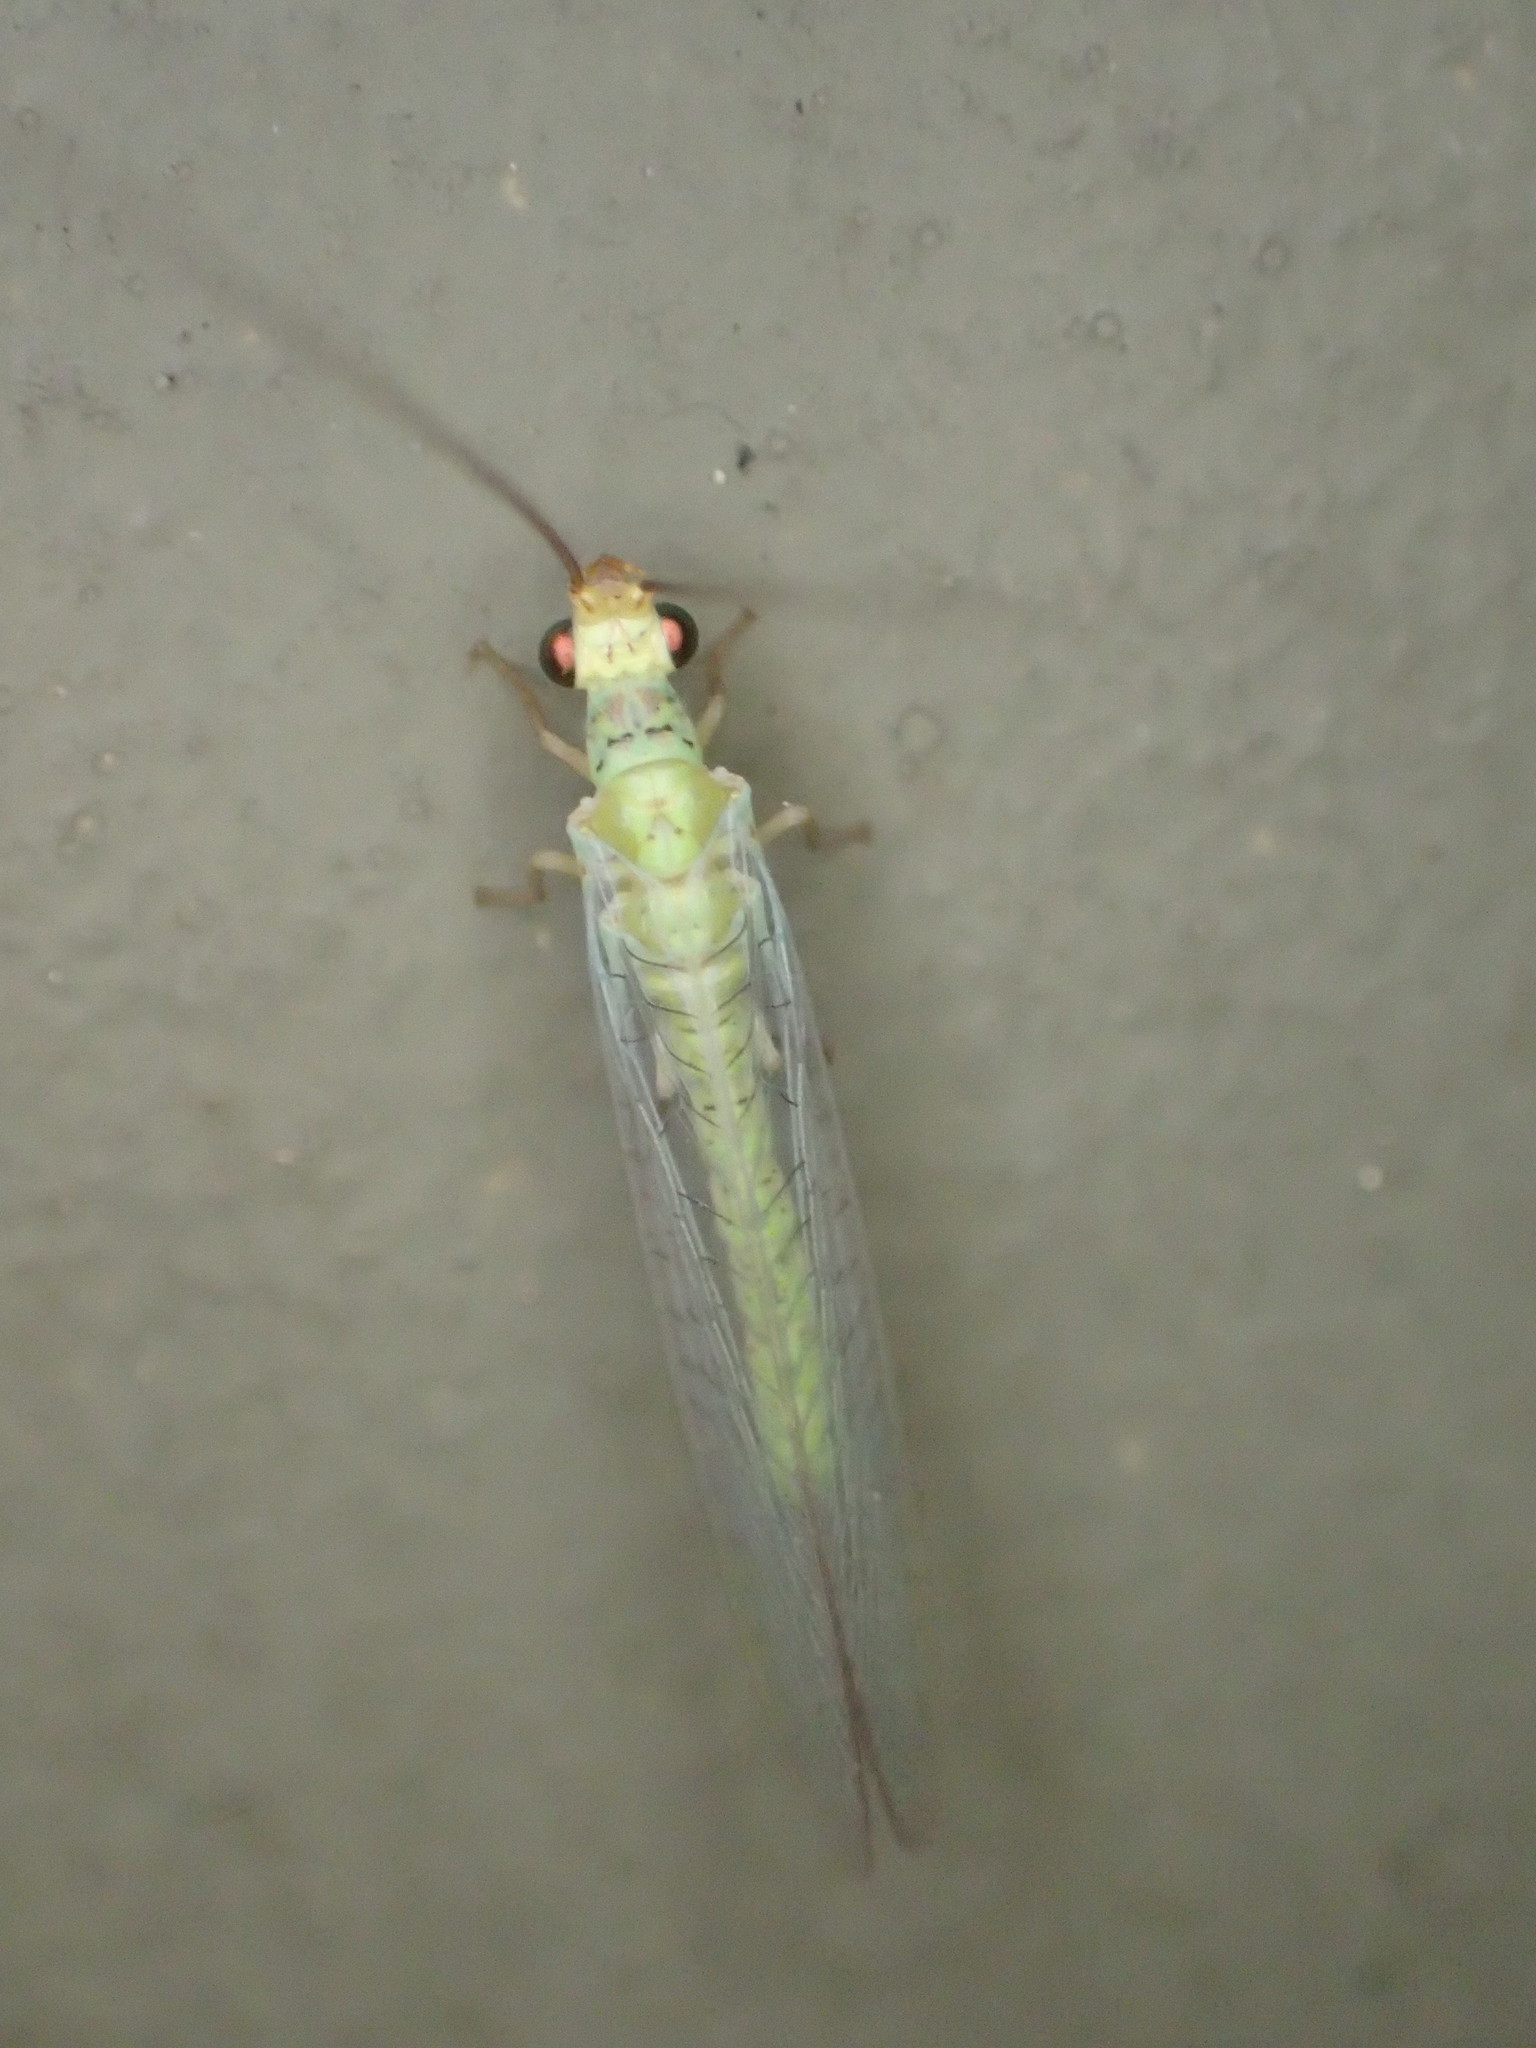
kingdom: Animalia
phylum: Arthropoda
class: Insecta
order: Neuroptera
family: Chrysopidae
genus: Plesiochrysa
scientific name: Plesiochrysa ramburi
